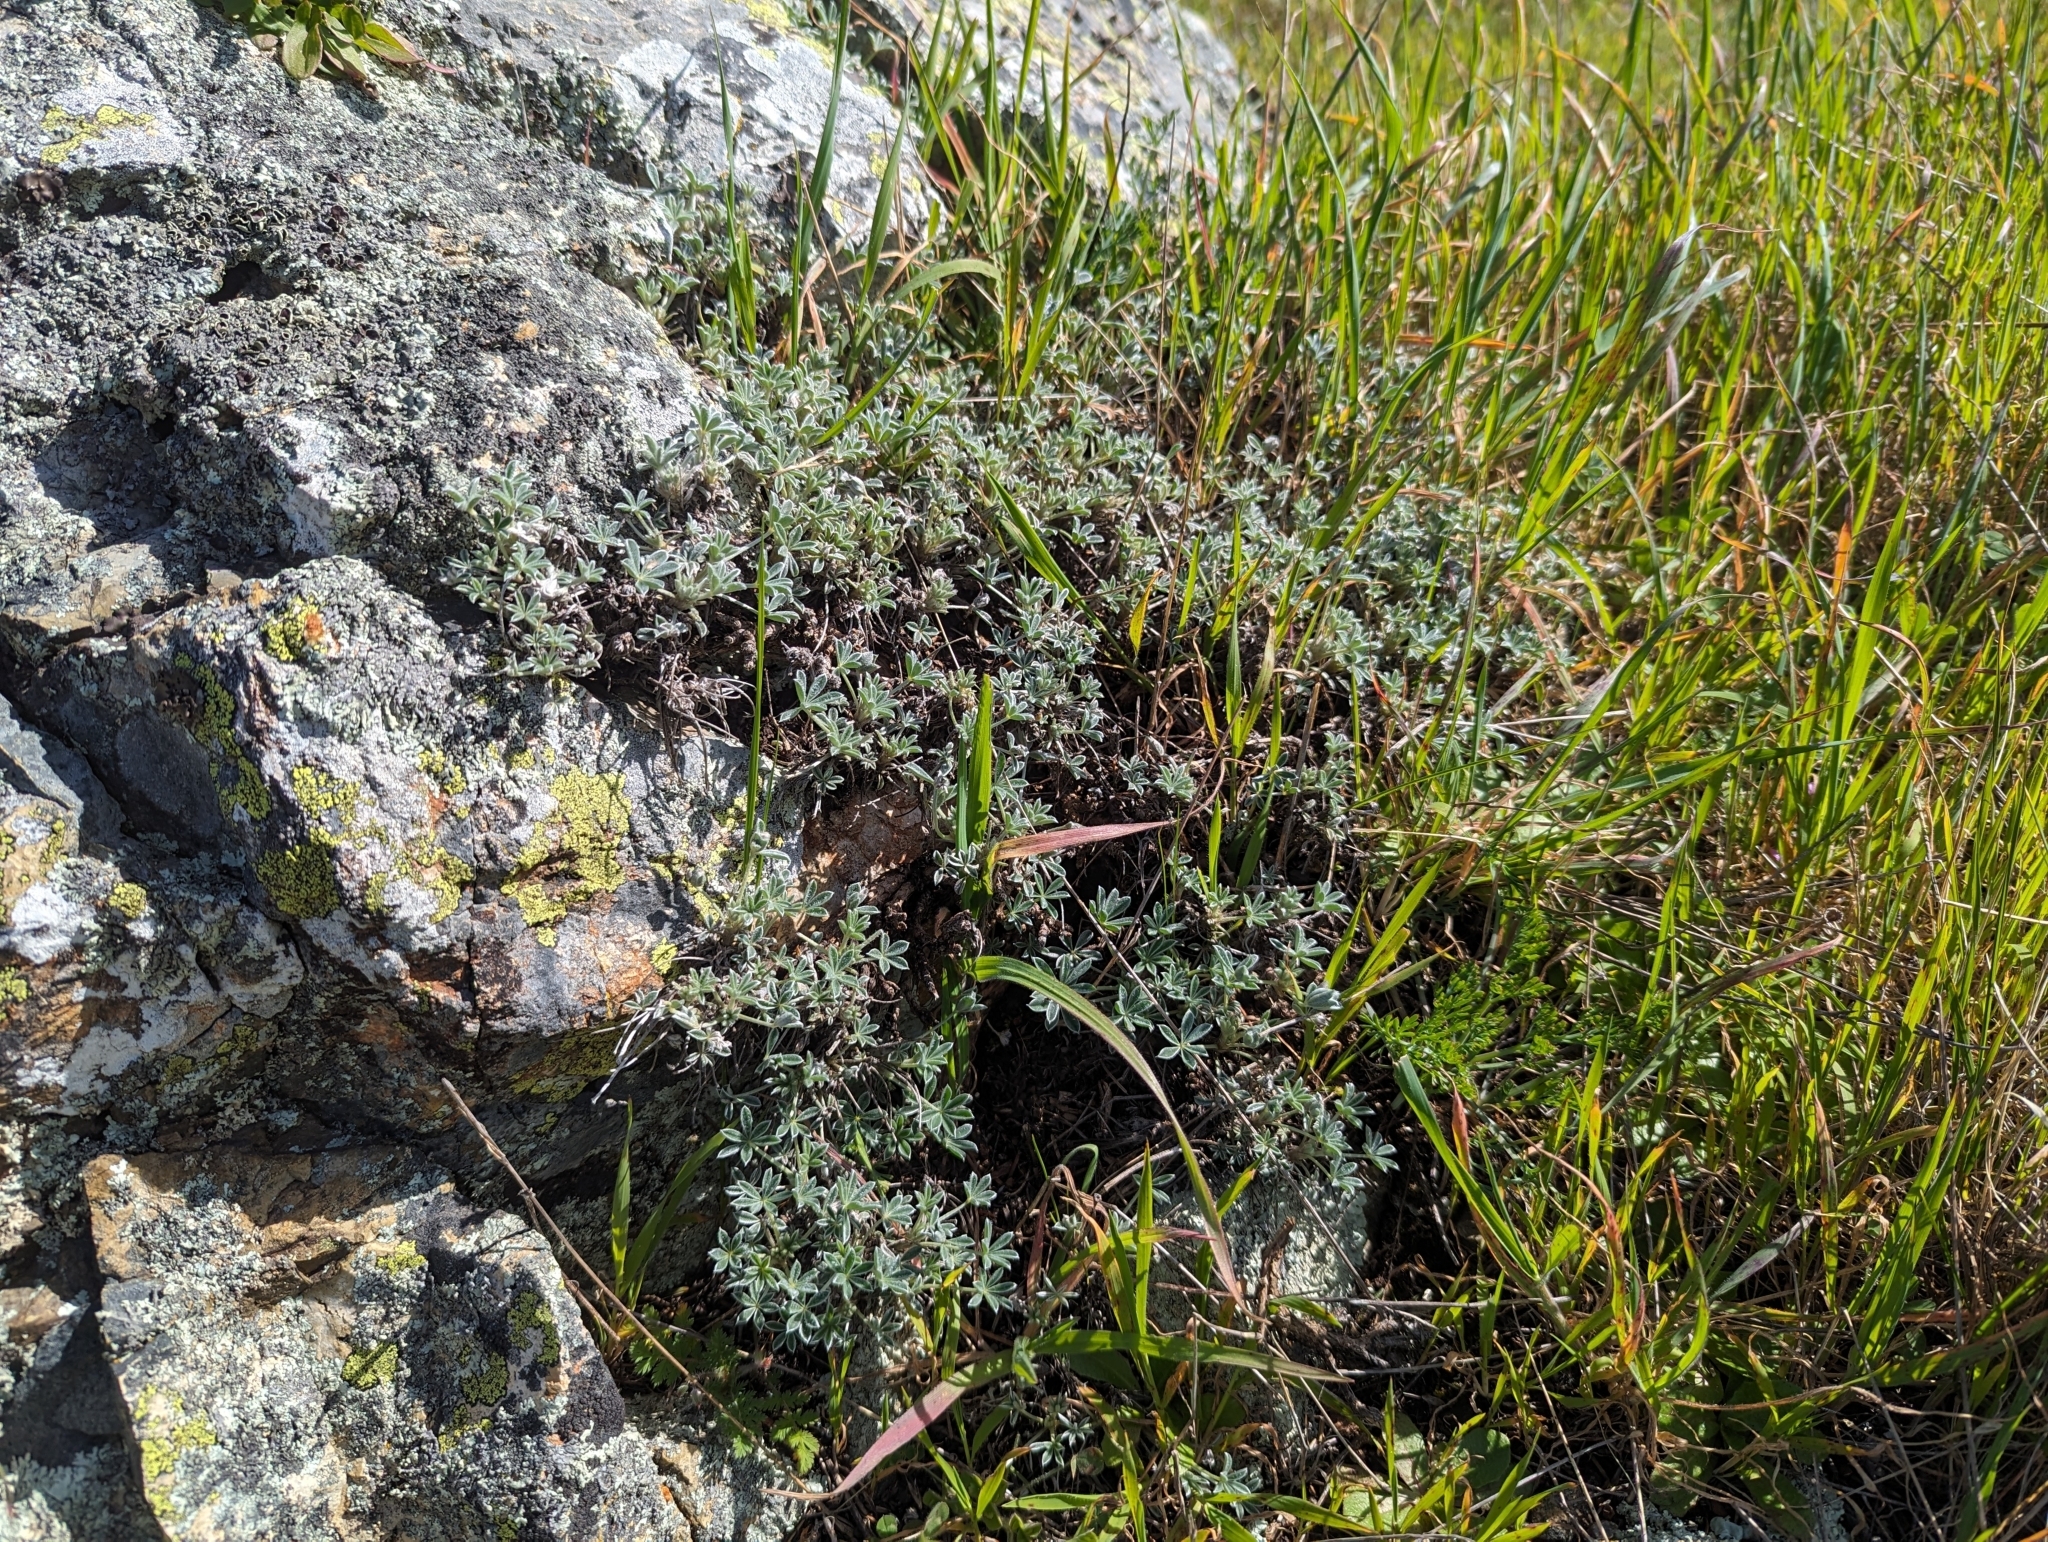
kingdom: Plantae
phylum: Tracheophyta
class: Magnoliopsida
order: Fabales
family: Fabaceae
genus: Lupinus
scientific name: Lupinus albifrons
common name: Foothill lupine
